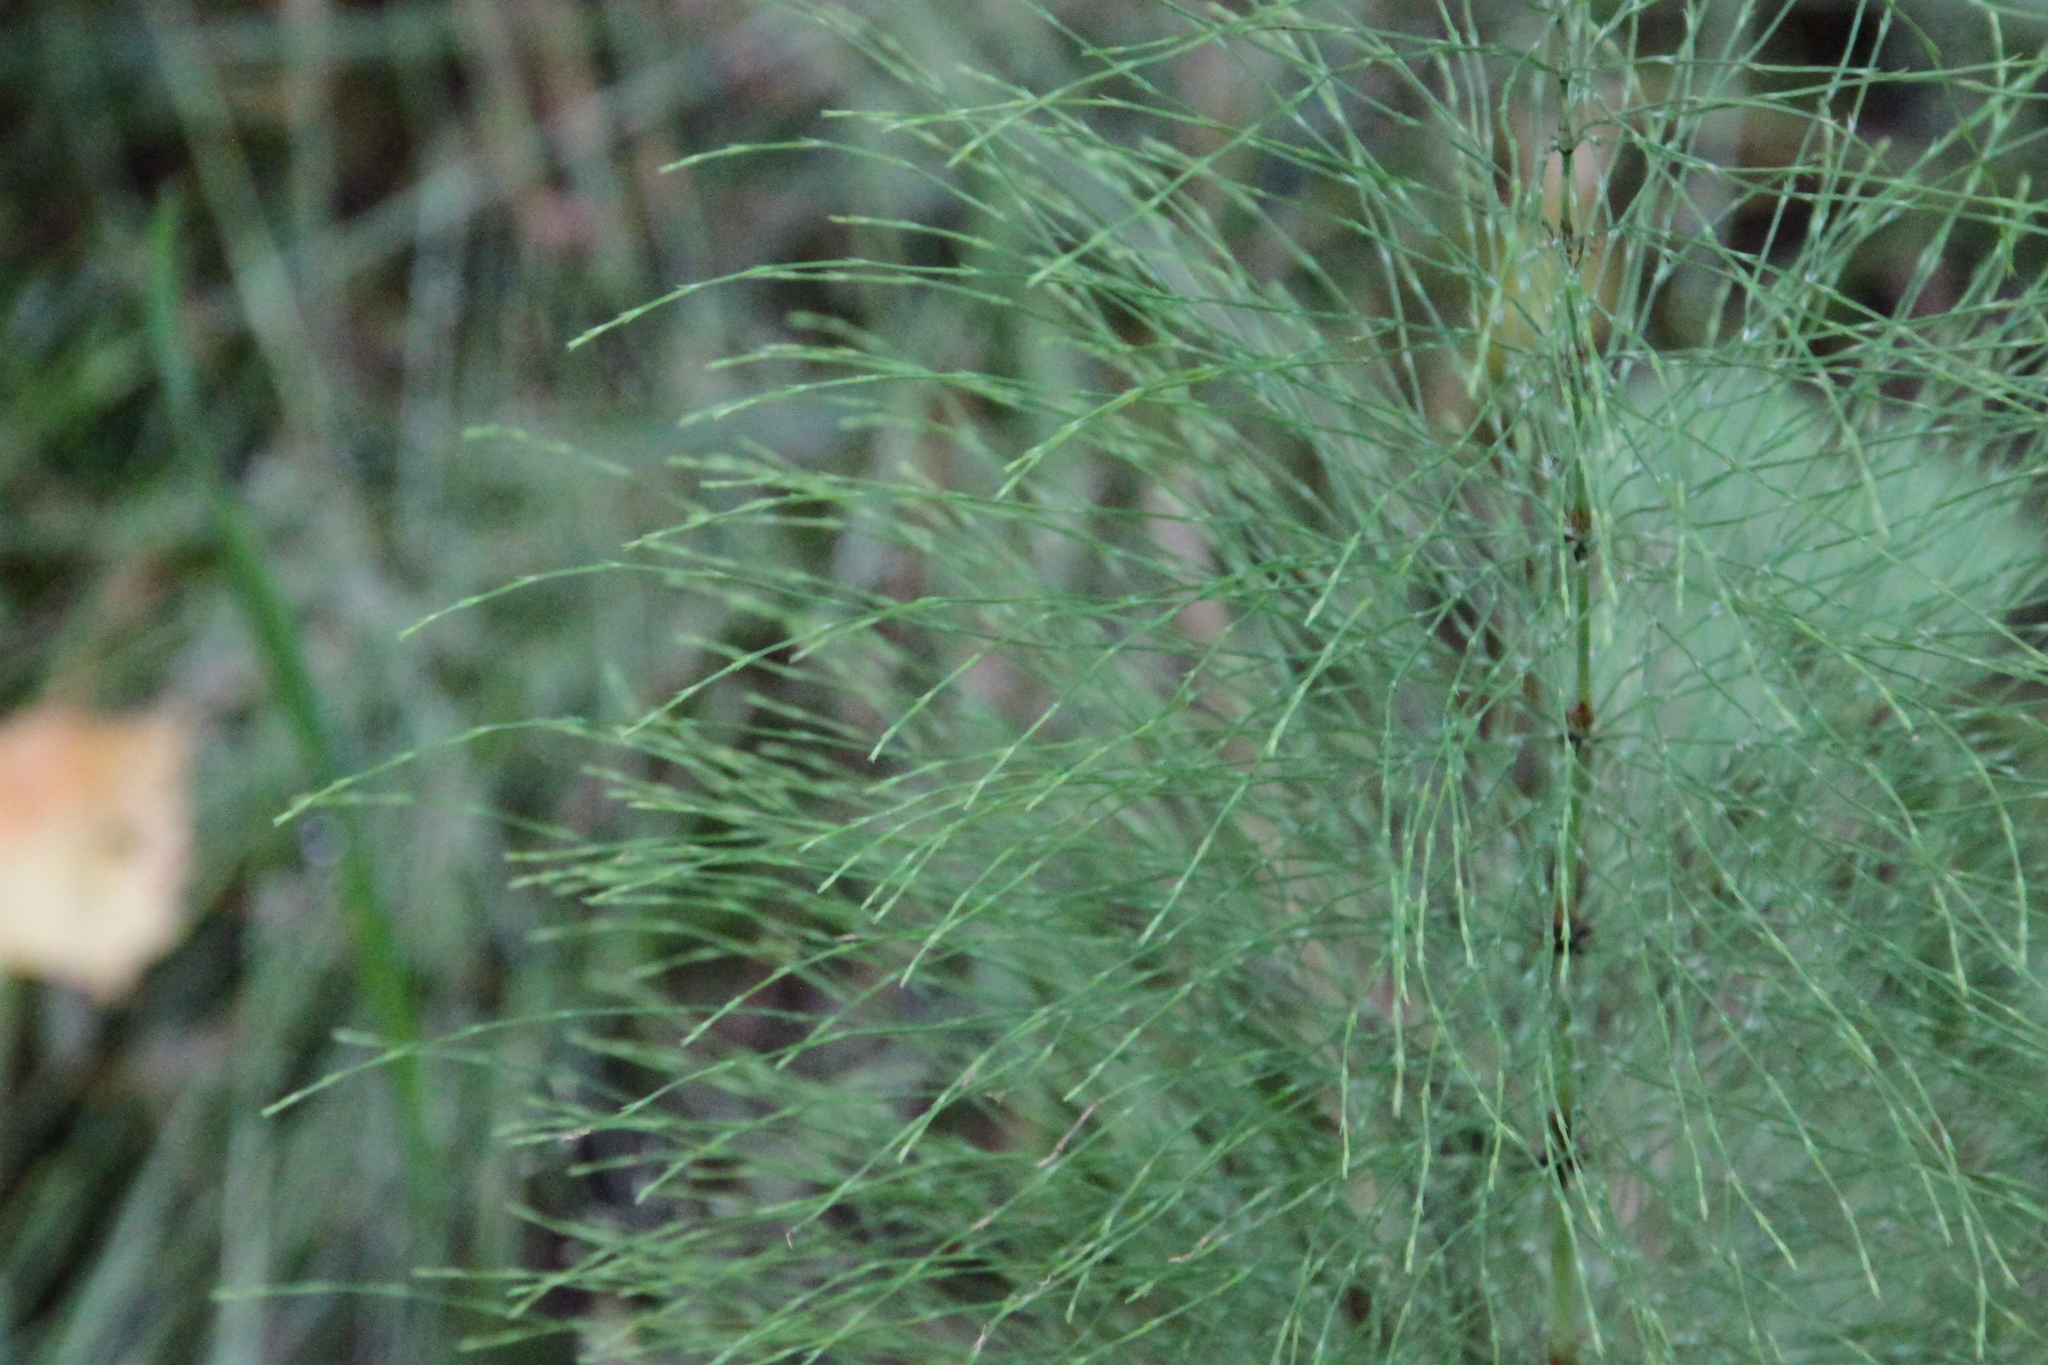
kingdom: Plantae
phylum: Tracheophyta
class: Polypodiopsida
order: Equisetales
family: Equisetaceae
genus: Equisetum
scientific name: Equisetum sylvaticum
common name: Wood horsetail
